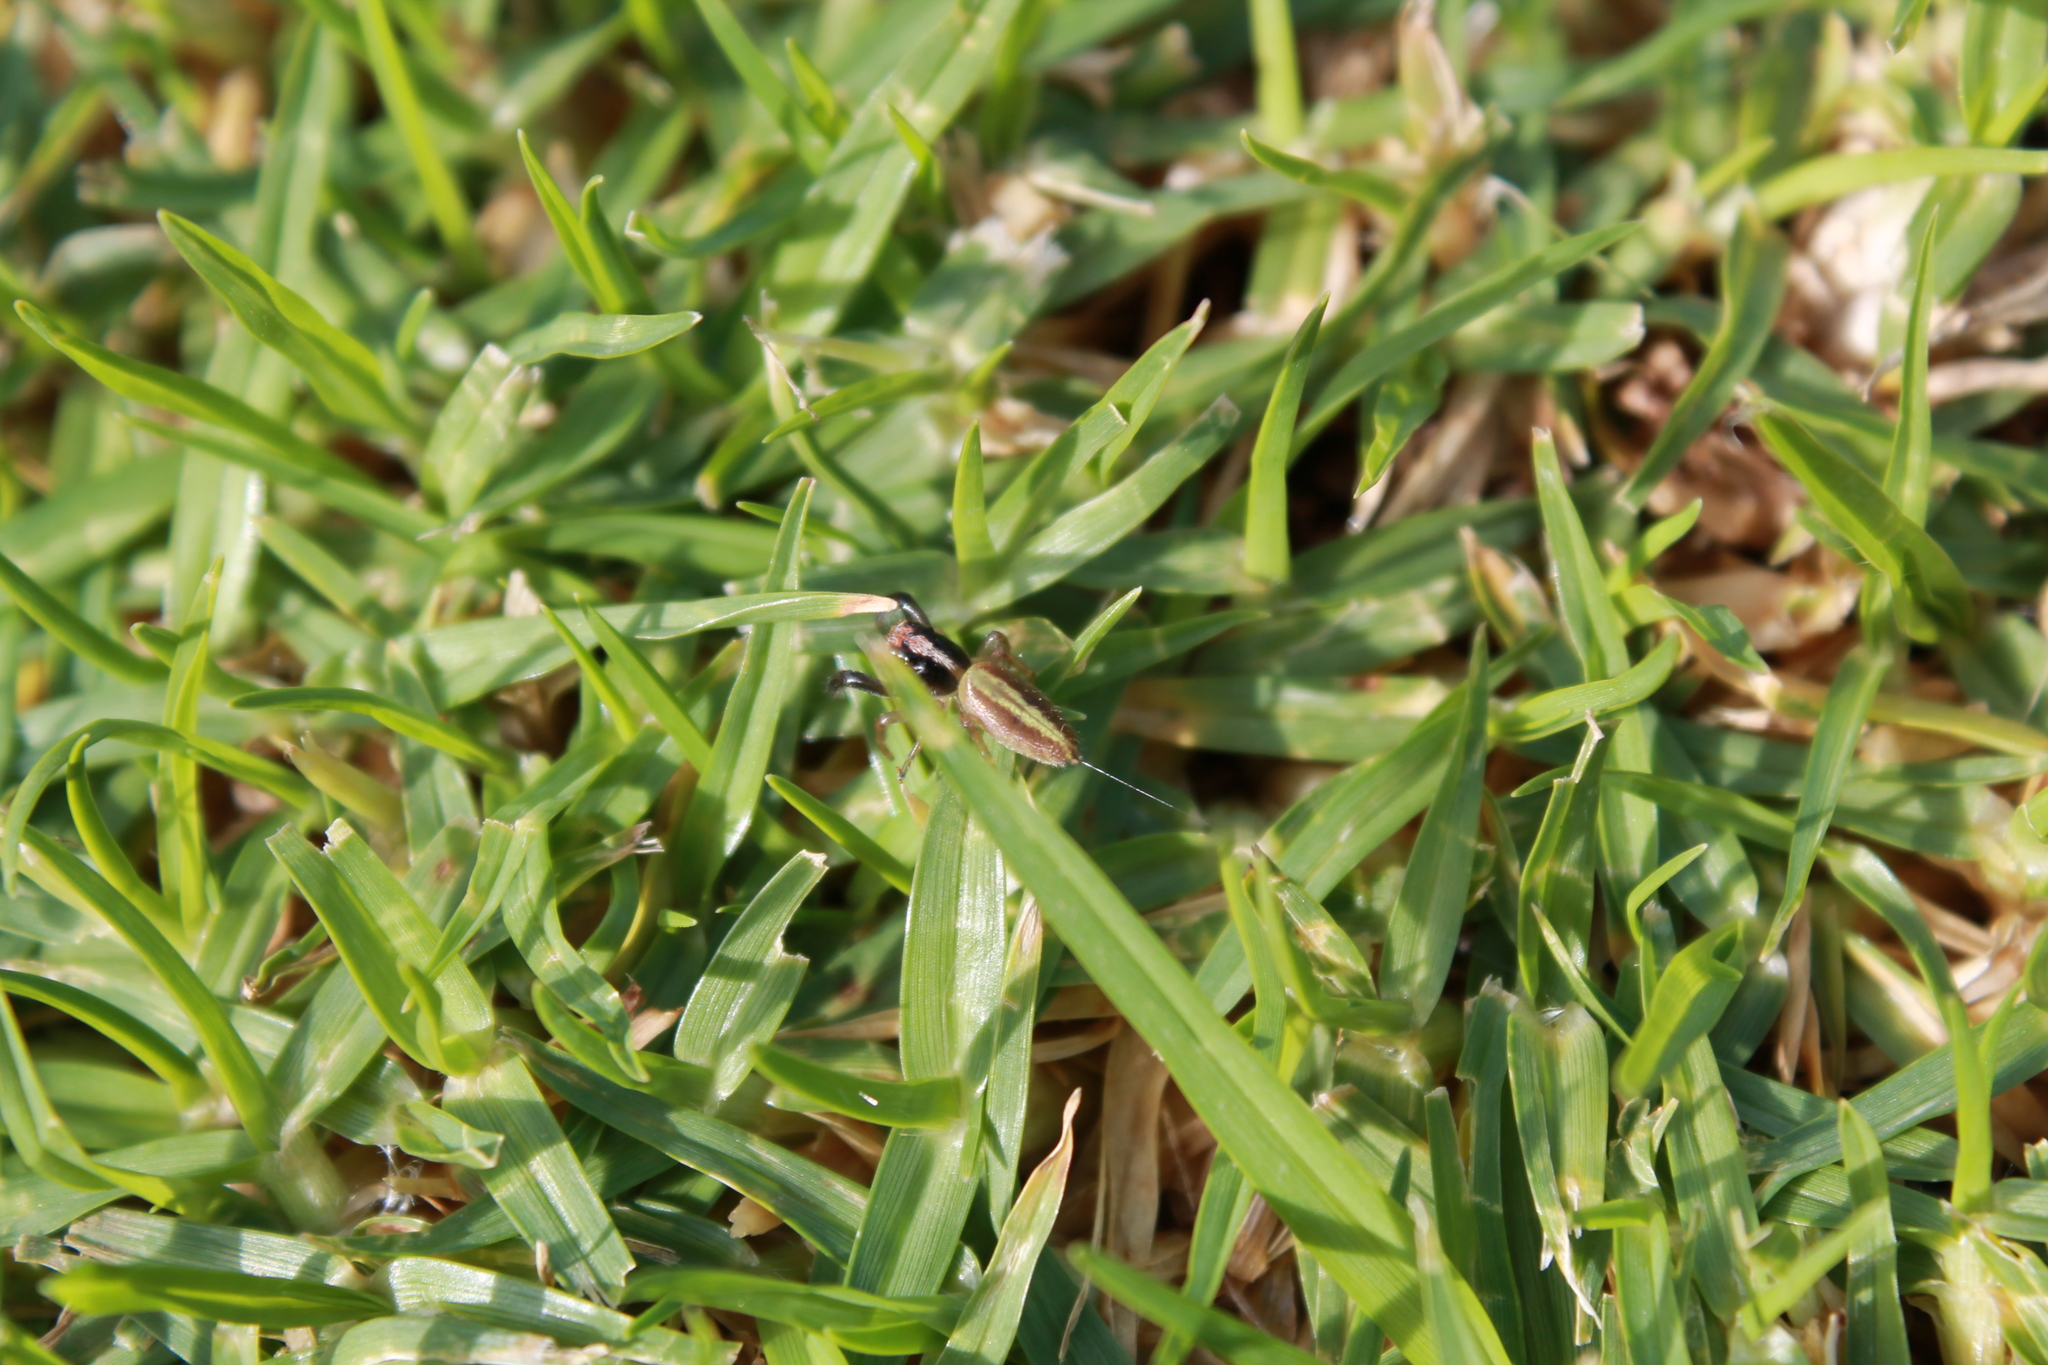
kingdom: Animalia
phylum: Arthropoda
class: Arachnida
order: Araneae
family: Salticidae
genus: Trite
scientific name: Trite planiceps
